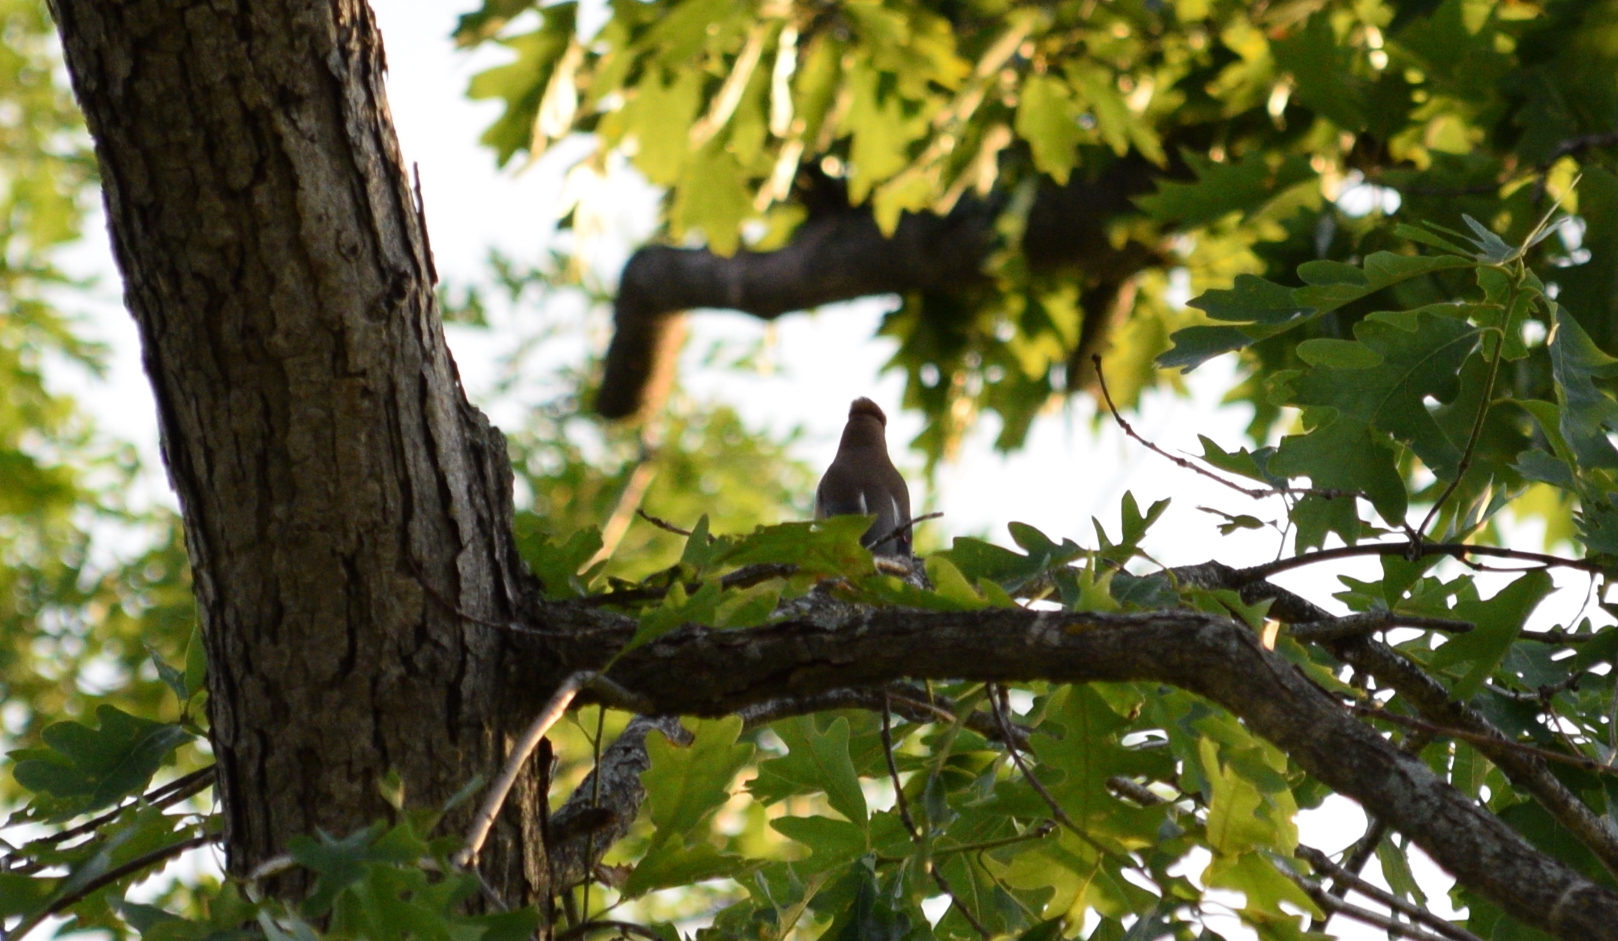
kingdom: Animalia
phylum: Chordata
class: Aves
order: Passeriformes
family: Bombycillidae
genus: Bombycilla
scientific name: Bombycilla cedrorum
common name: Cedar waxwing
